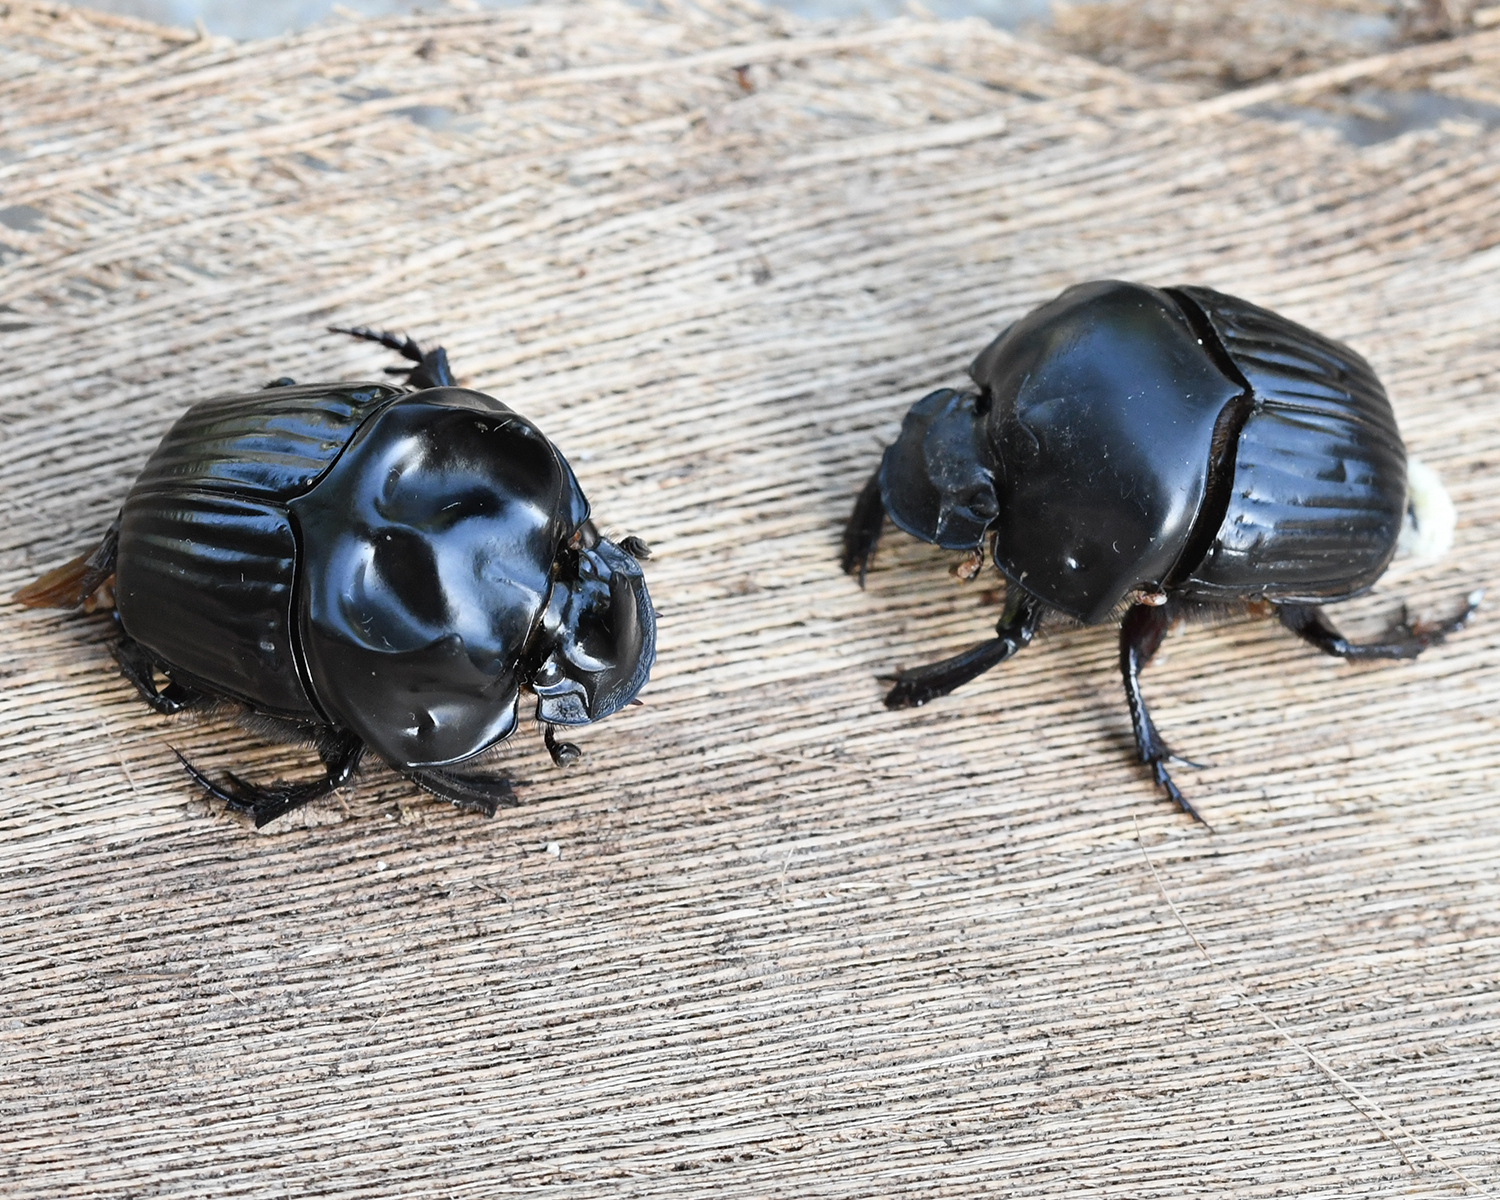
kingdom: Animalia
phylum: Arthropoda
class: Insecta
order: Coleoptera
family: Scarabaeidae
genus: Oxysternon
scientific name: Oxysternon festivum
